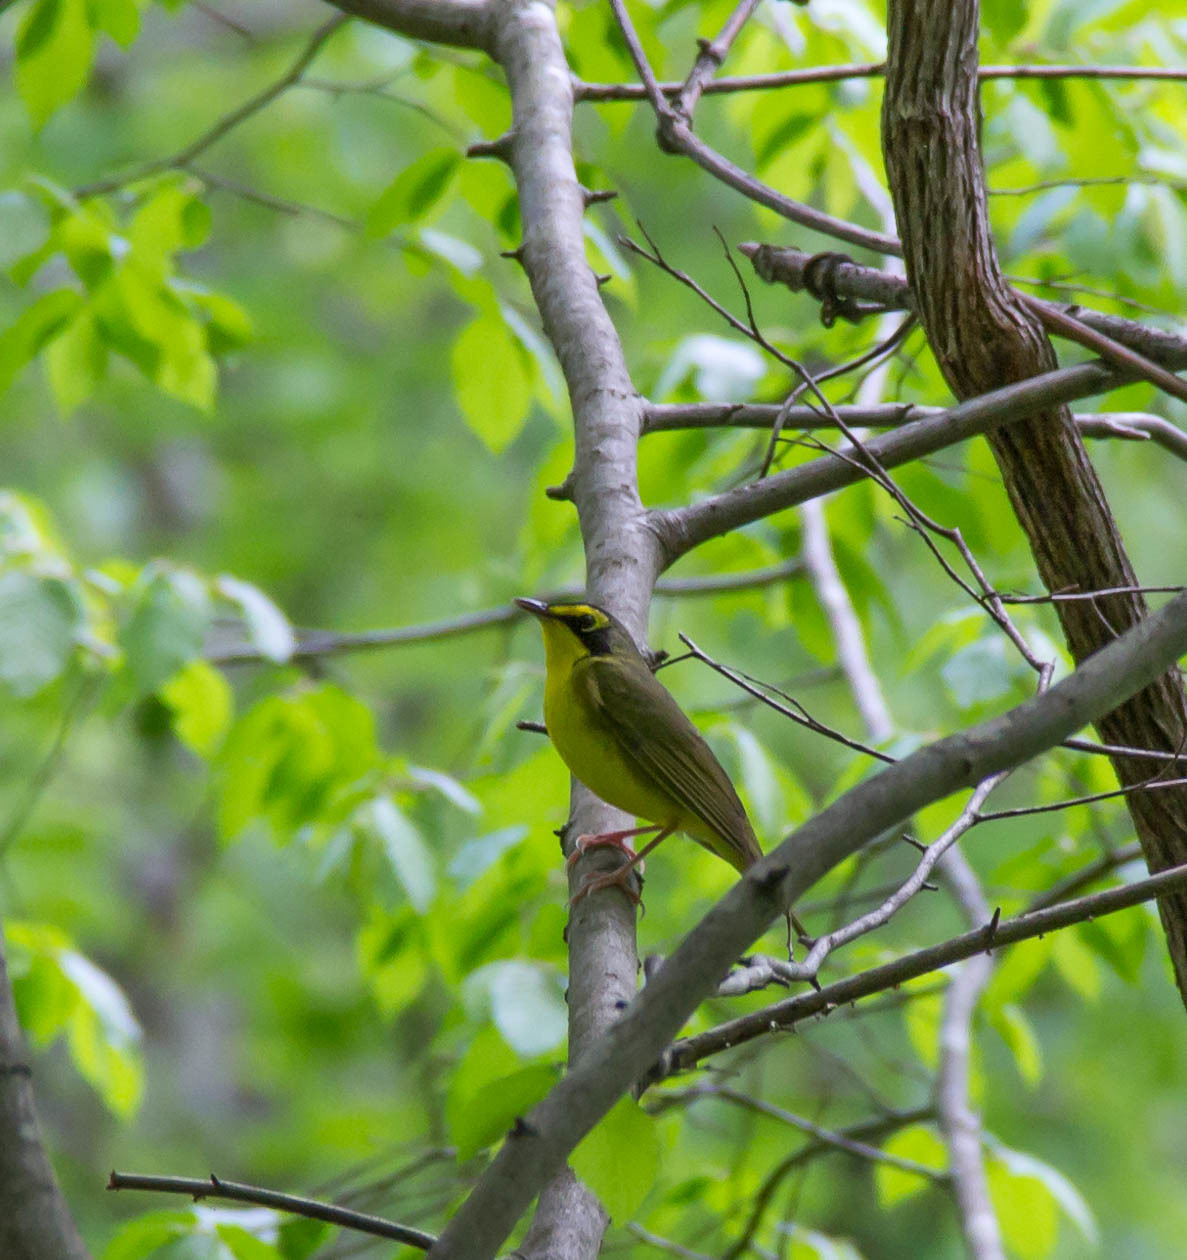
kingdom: Animalia
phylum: Chordata
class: Aves
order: Passeriformes
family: Parulidae
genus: Geothlypis
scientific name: Geothlypis formosa
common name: Kentucky warbler
